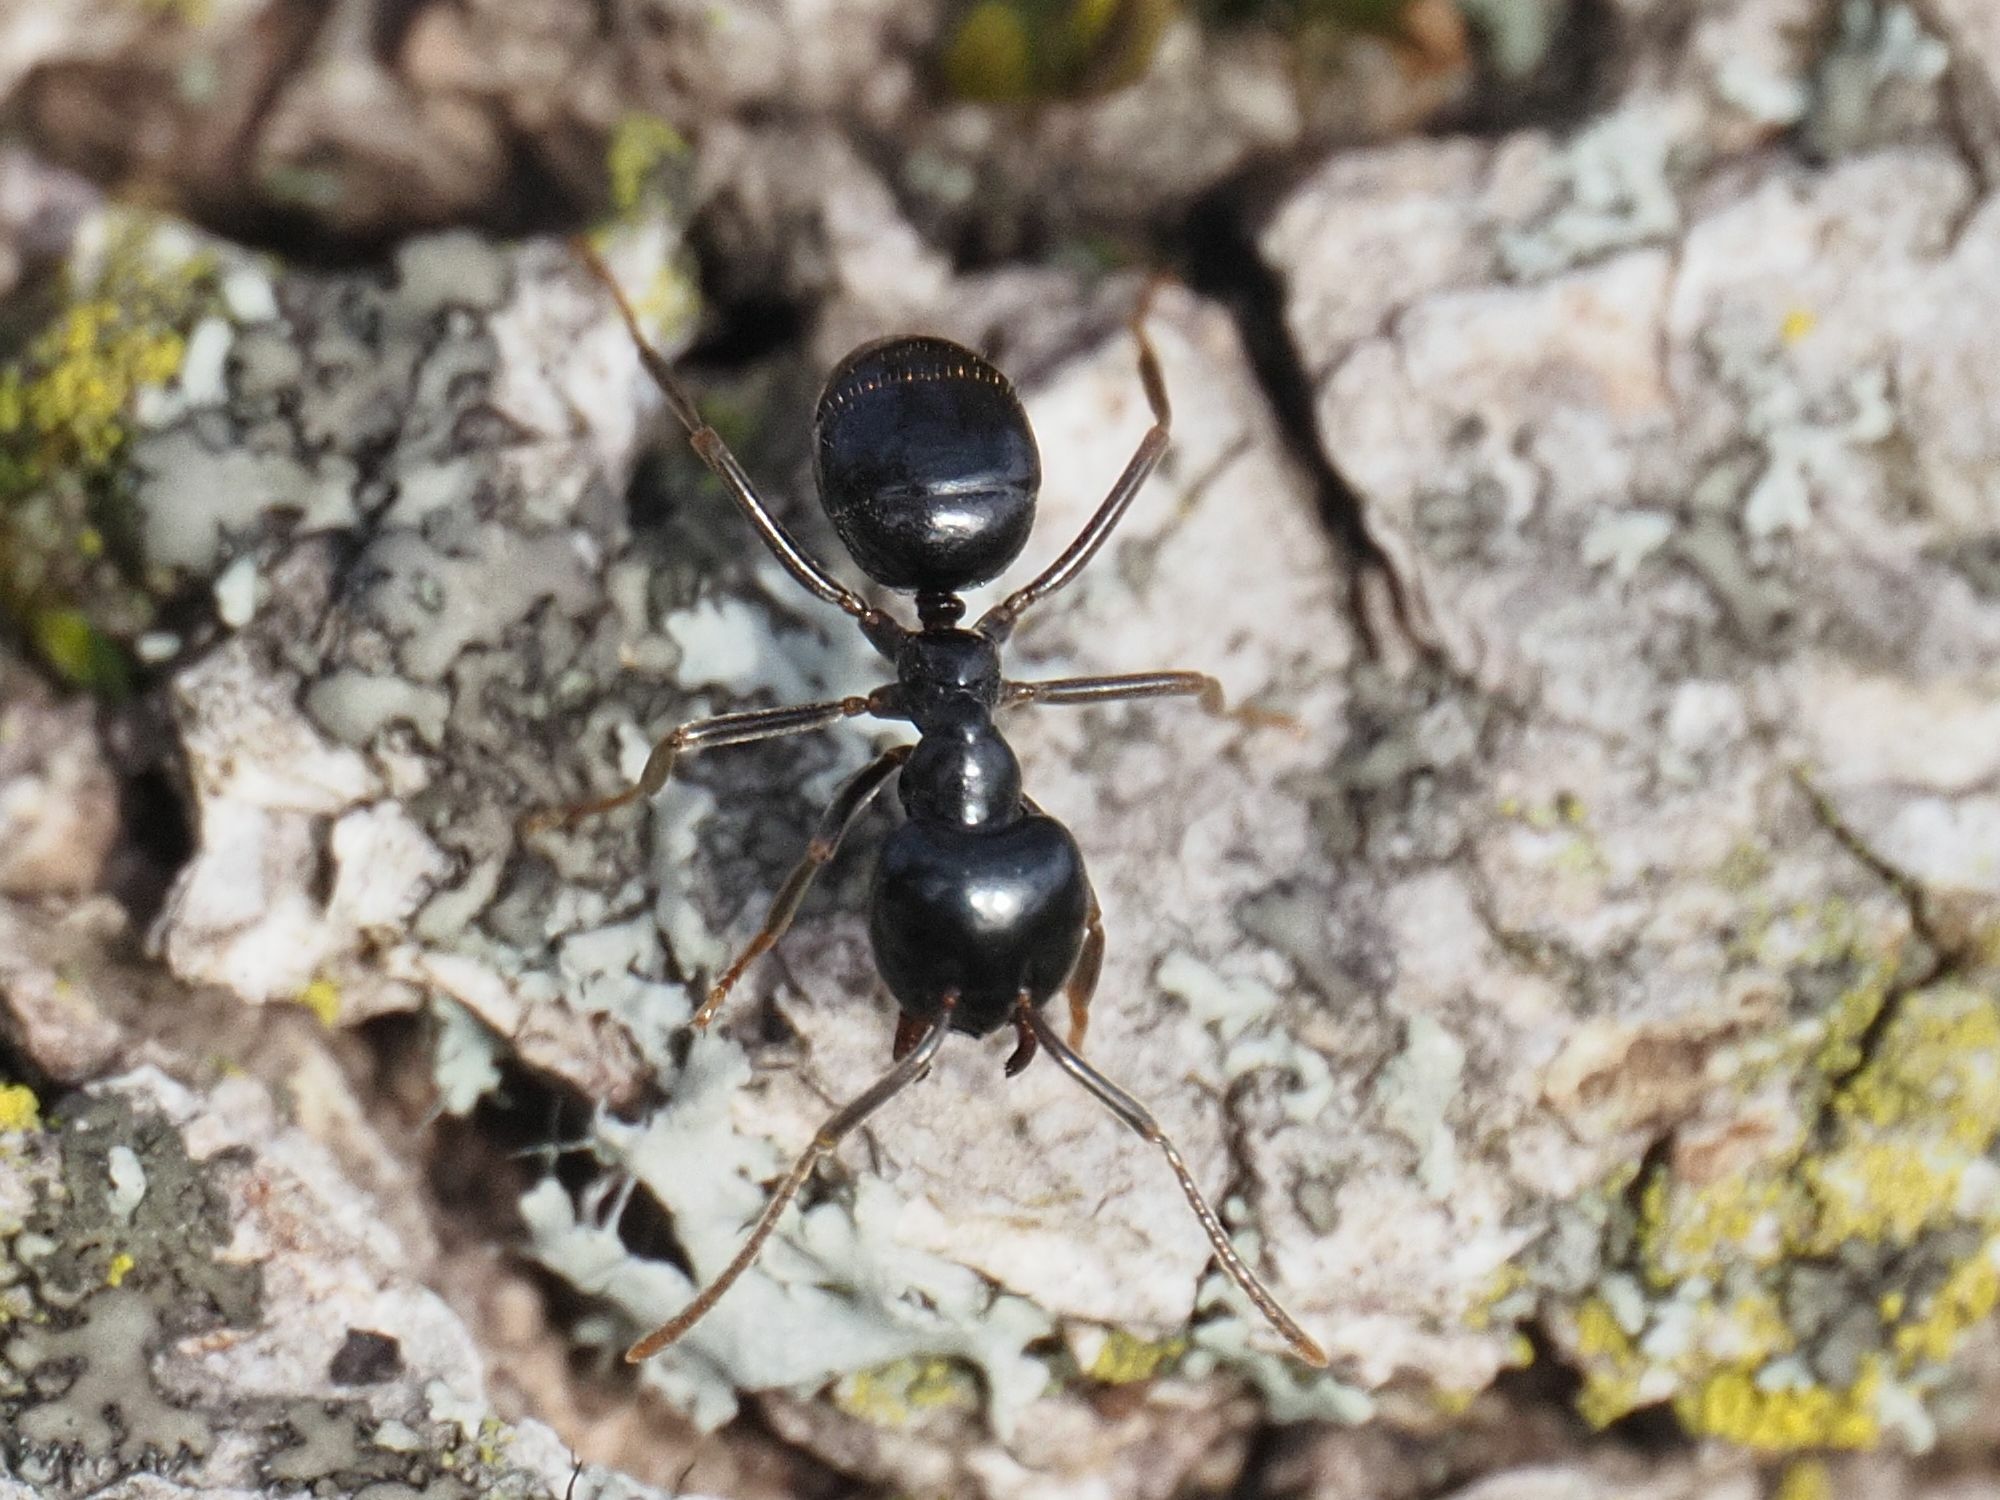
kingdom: Animalia
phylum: Arthropoda
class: Insecta
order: Hymenoptera
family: Formicidae
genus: Lasius
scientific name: Lasius fuliginosus
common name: Jet ant
